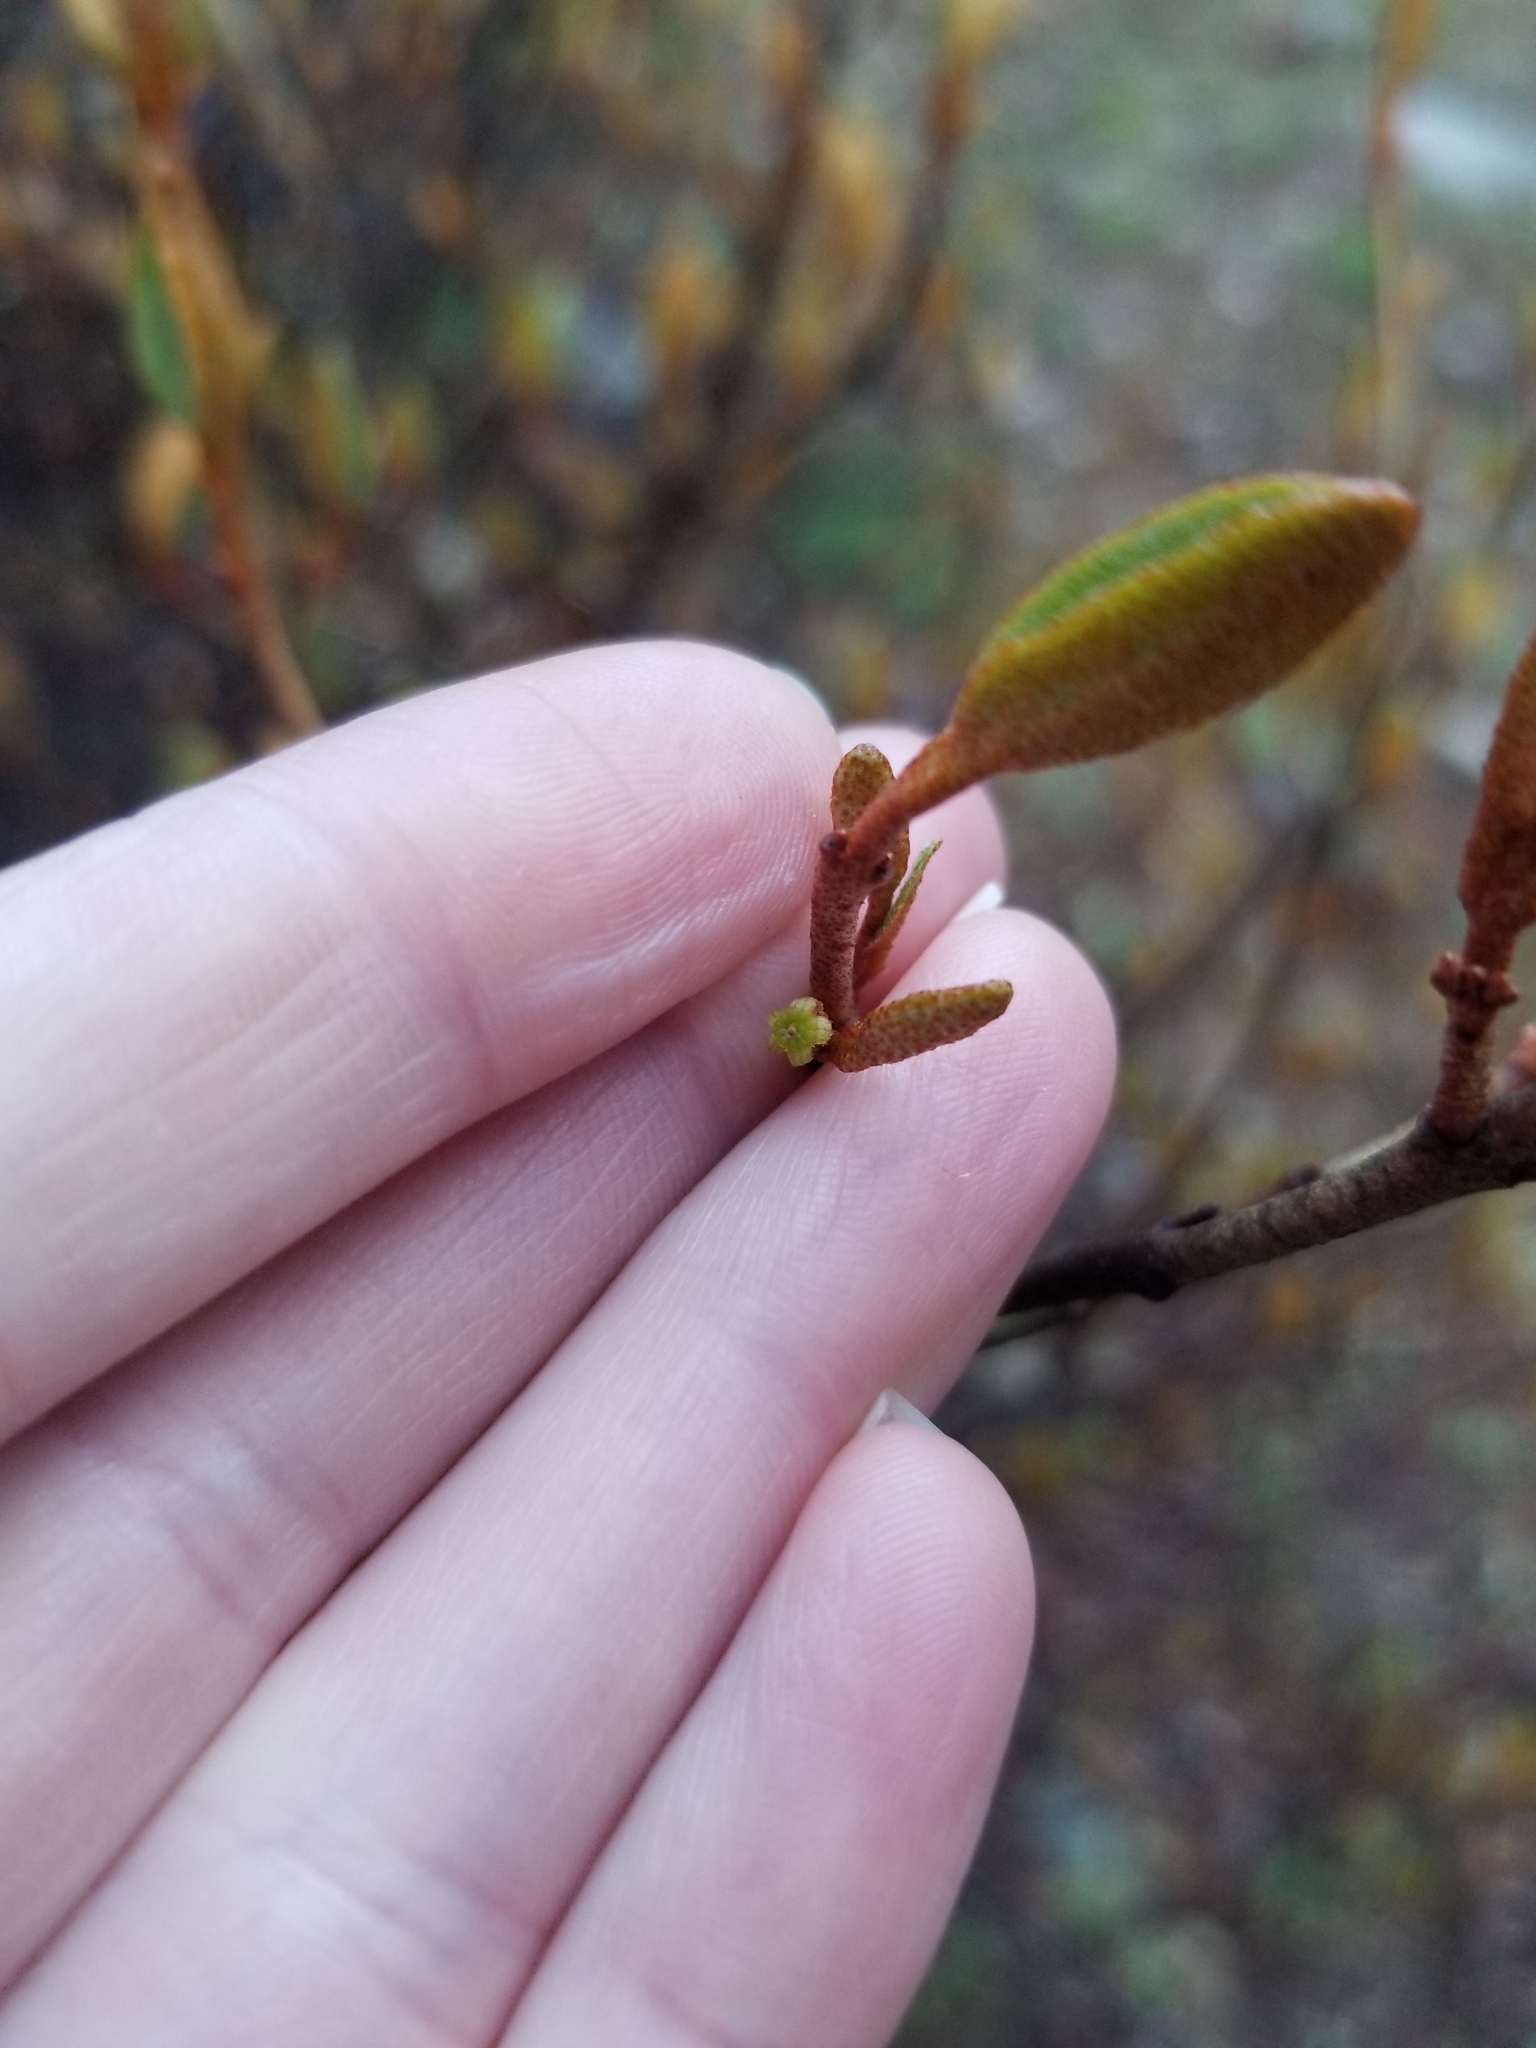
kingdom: Plantae
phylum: Tracheophyta
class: Magnoliopsida
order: Rosales
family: Elaeagnaceae
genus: Shepherdia
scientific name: Shepherdia canadensis
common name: Soapberry
